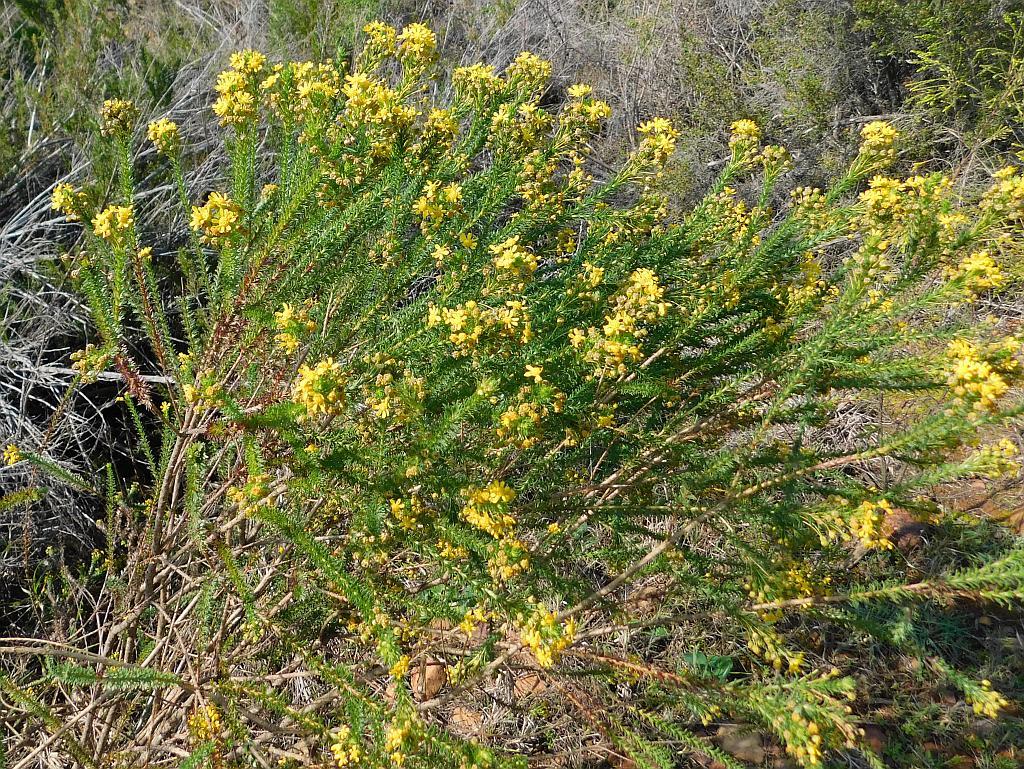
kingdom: Plantae
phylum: Tracheophyta
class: Magnoliopsida
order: Asterales
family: Asteraceae
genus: Euryops
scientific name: Euryops virgineus
